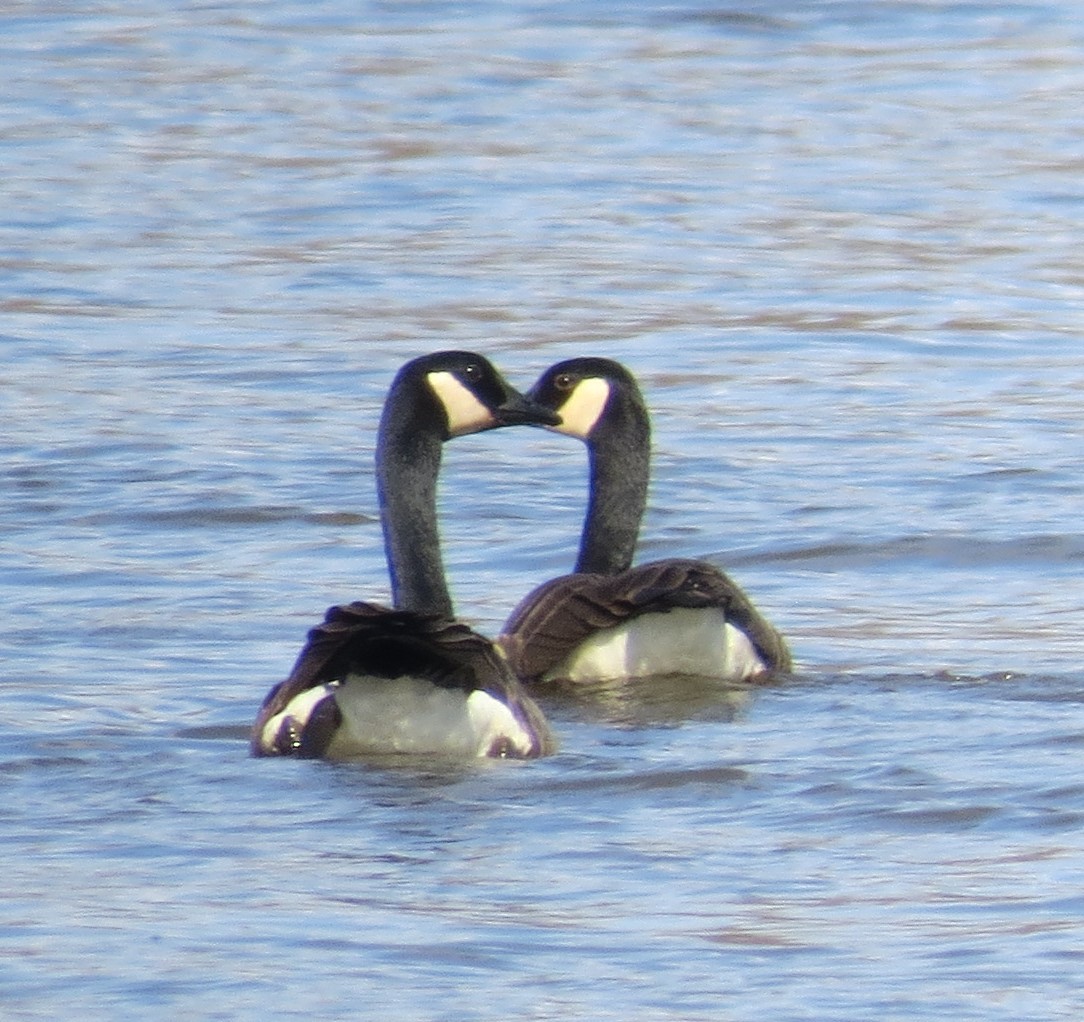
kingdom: Animalia
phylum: Chordata
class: Aves
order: Anseriformes
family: Anatidae
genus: Branta
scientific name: Branta canadensis
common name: Canada goose
